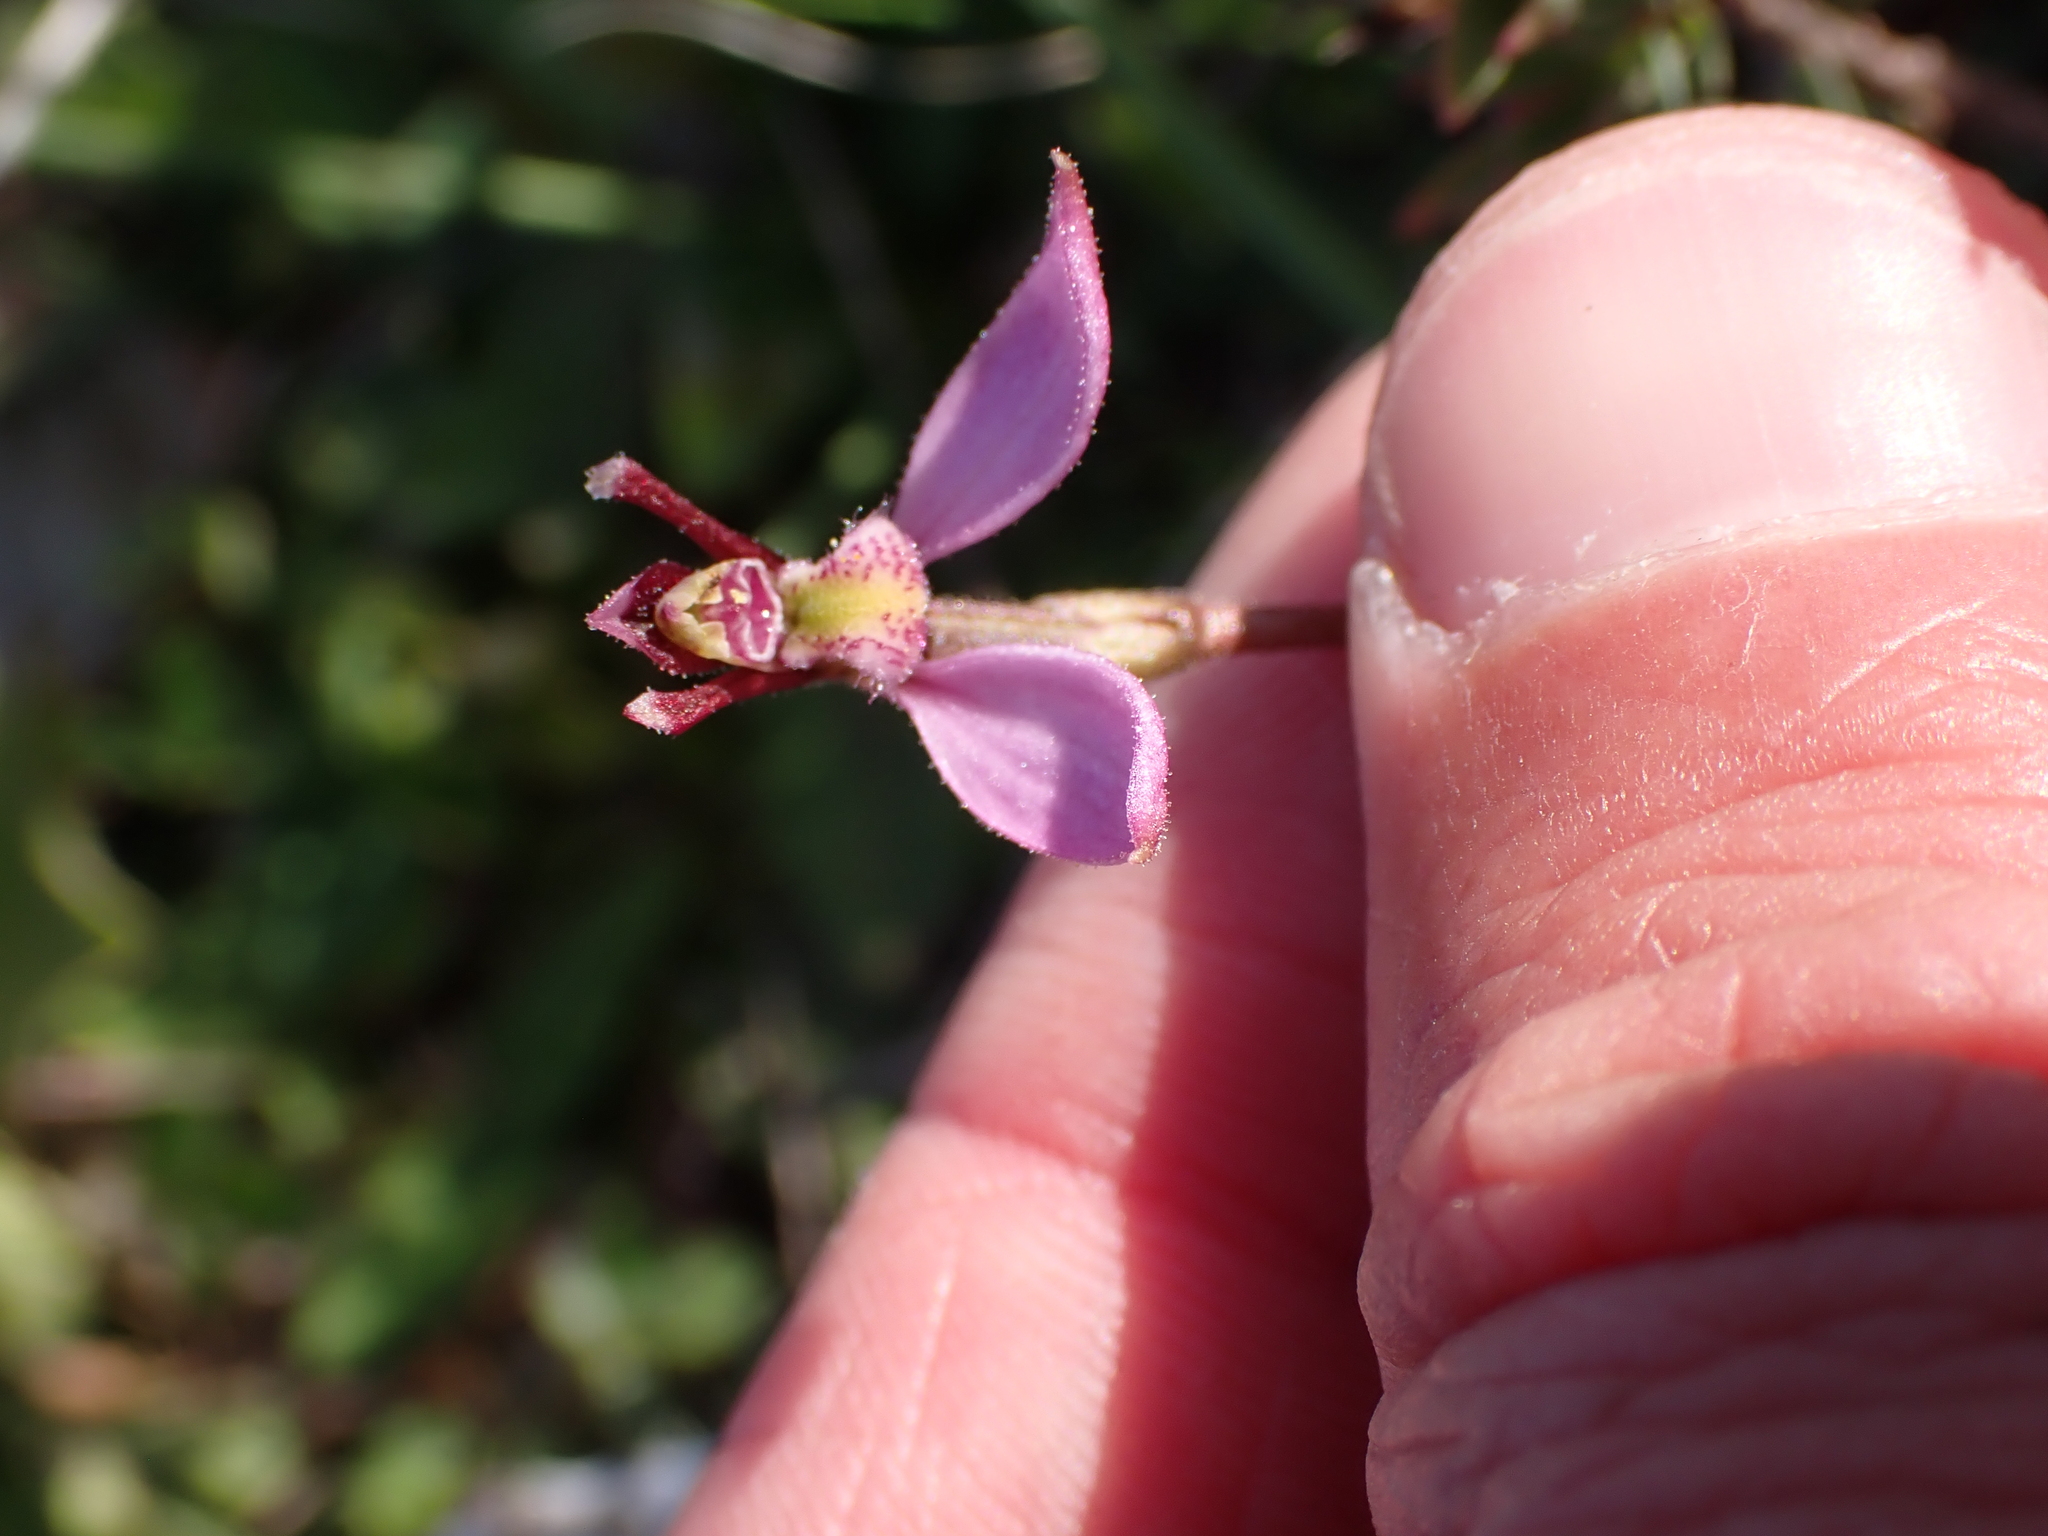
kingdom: Plantae
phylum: Tracheophyta
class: Liliopsida
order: Asparagales
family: Orchidaceae
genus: Eriochilus
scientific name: Eriochilus magenteus
